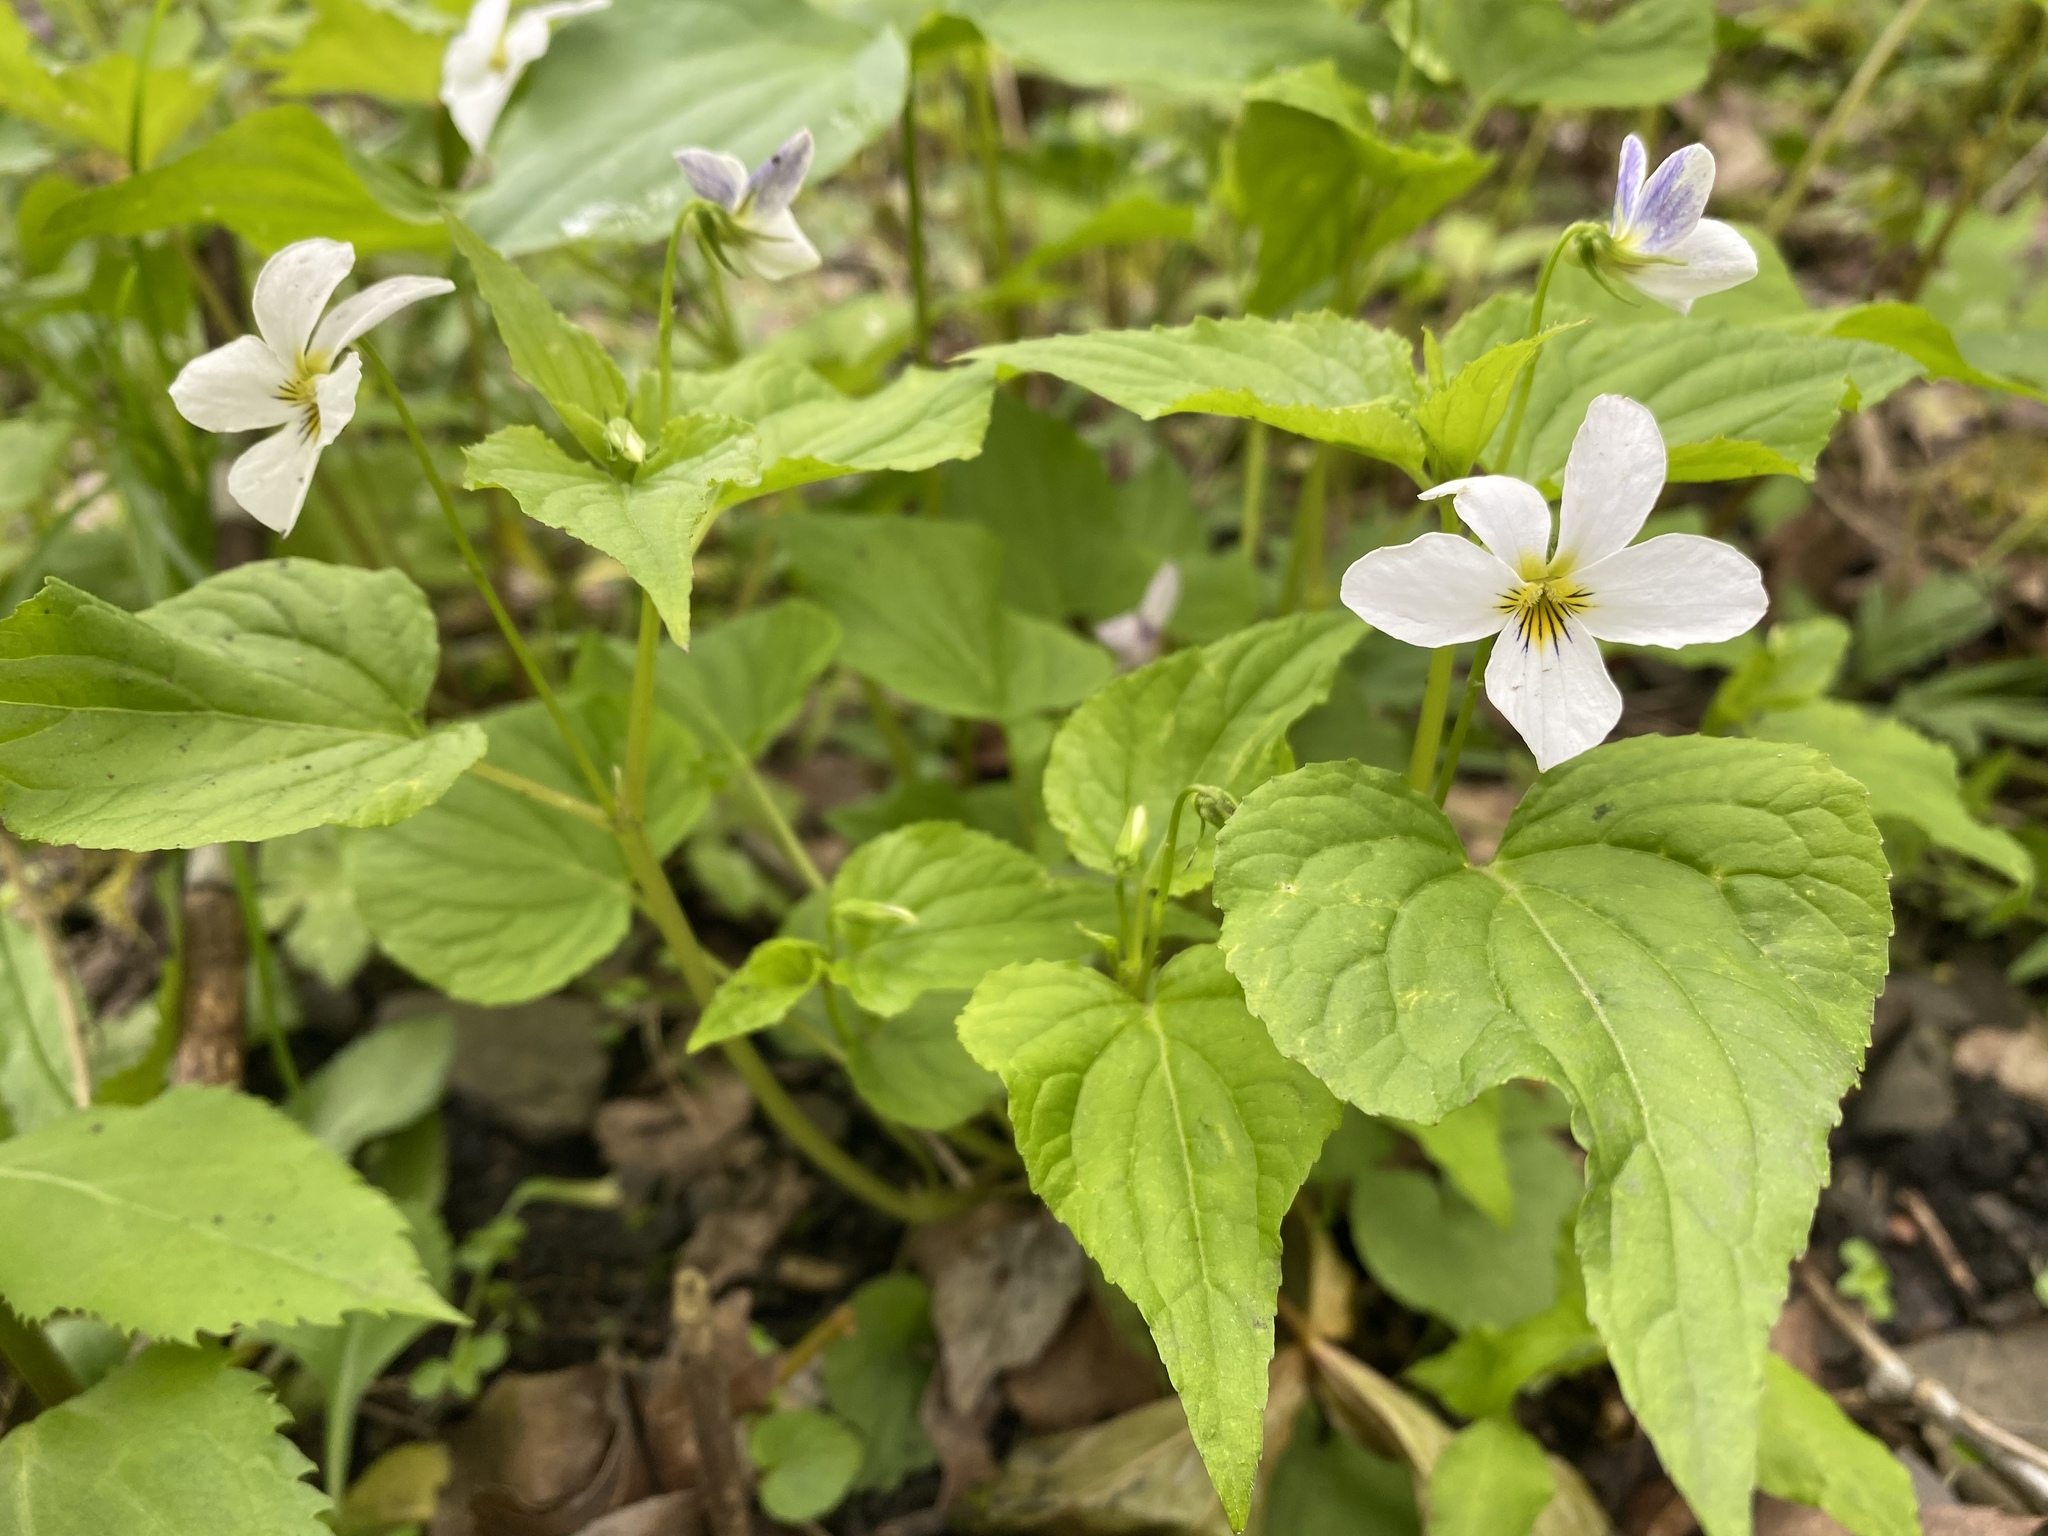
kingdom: Plantae
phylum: Tracheophyta
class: Magnoliopsida
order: Malpighiales
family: Violaceae
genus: Viola
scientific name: Viola canadensis
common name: Canada violet
